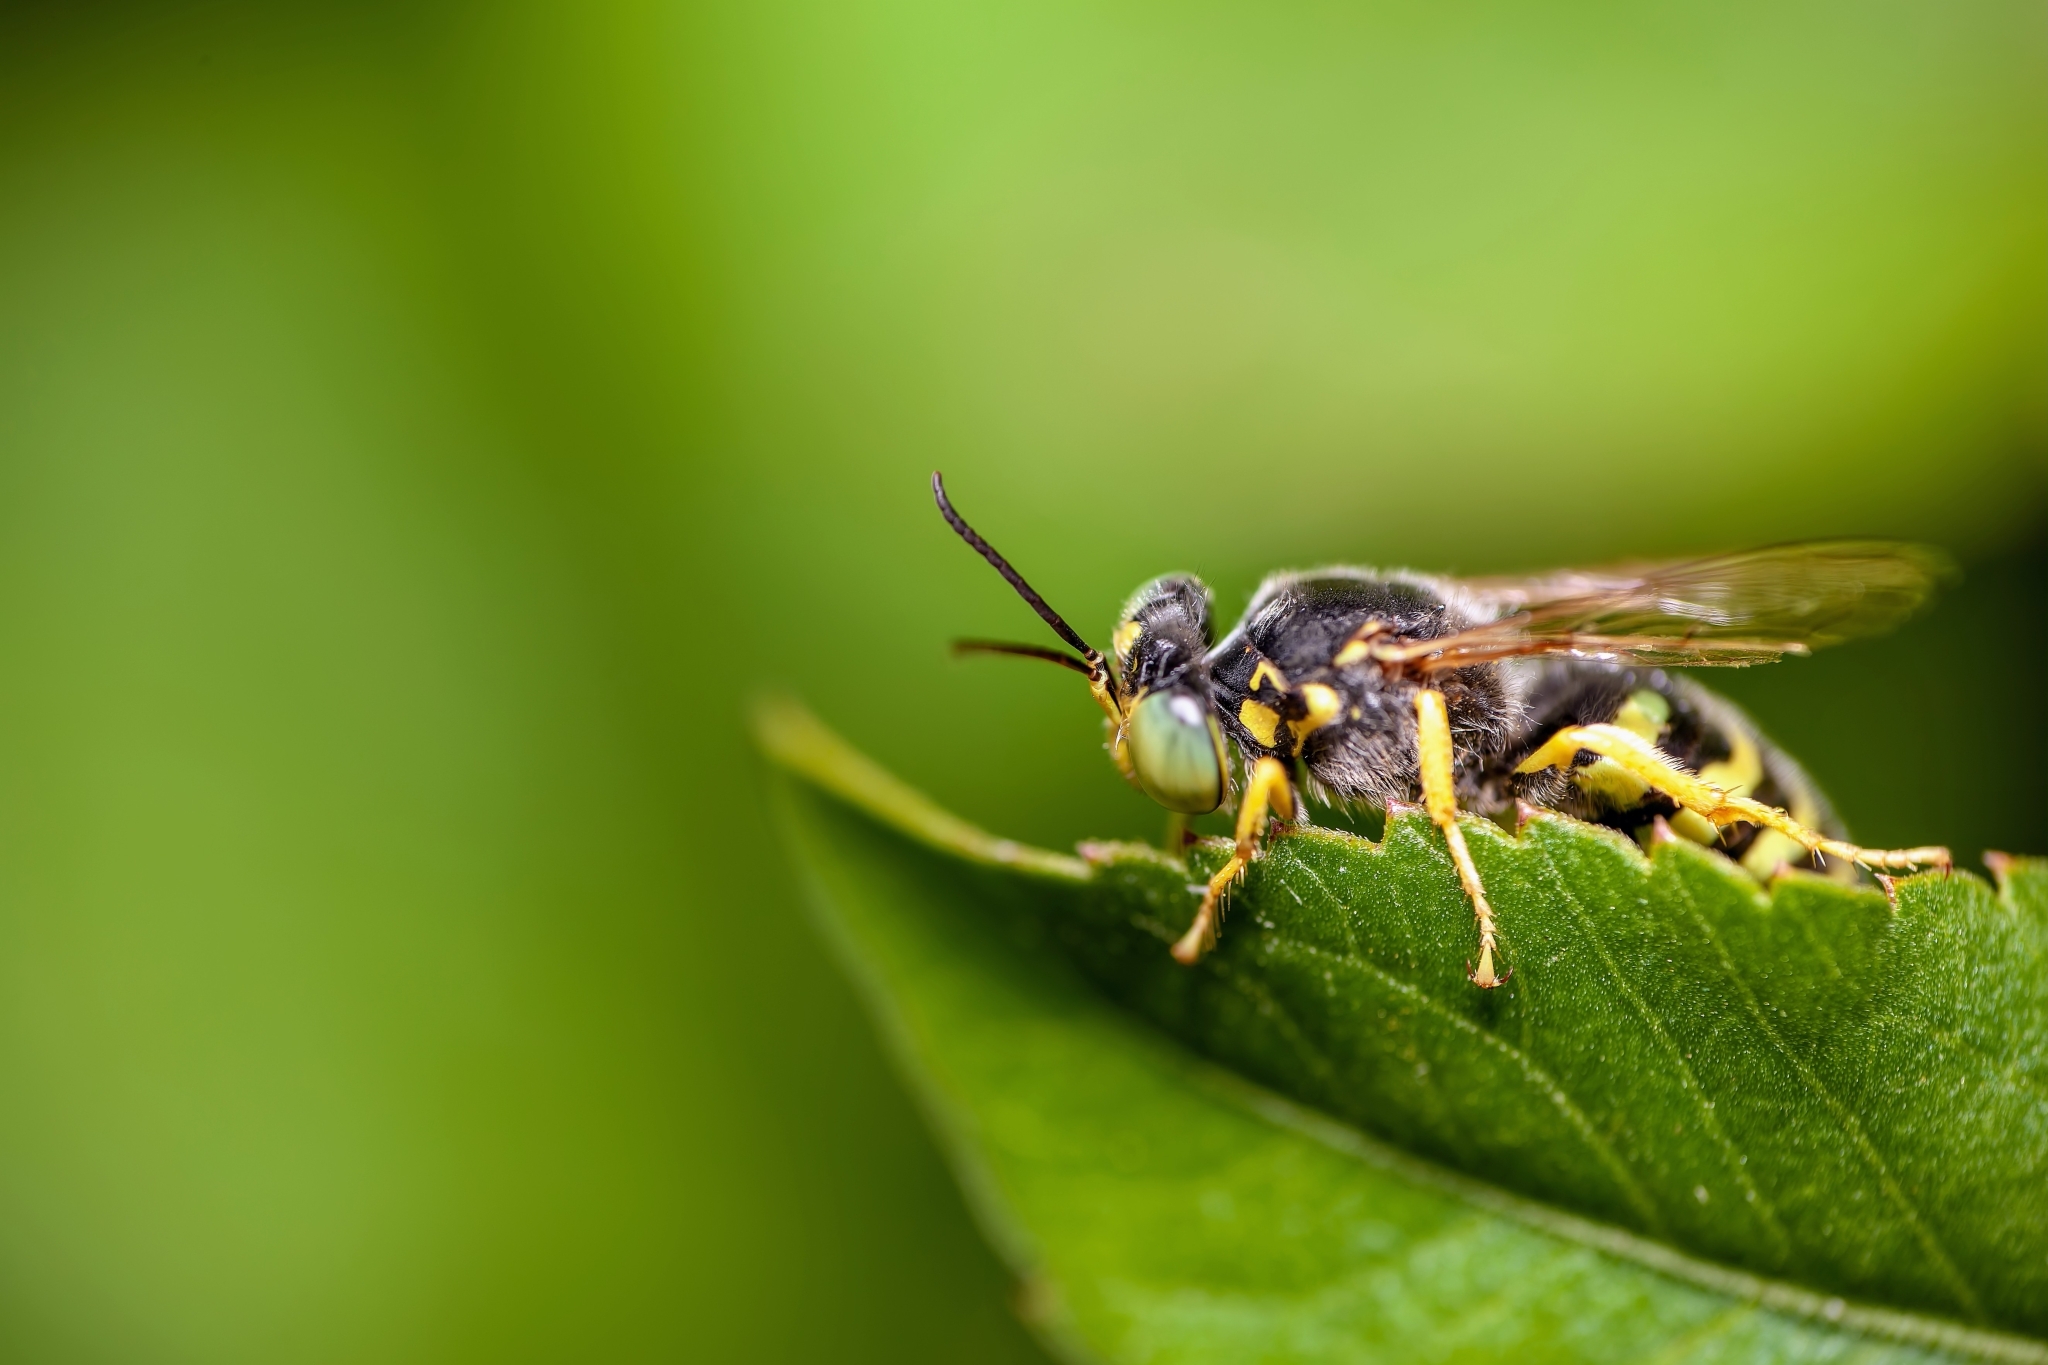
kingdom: Animalia
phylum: Arthropoda
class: Insecta
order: Hymenoptera
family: Crabronidae
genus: Bembix
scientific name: Bembix americana
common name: American sand wasp
